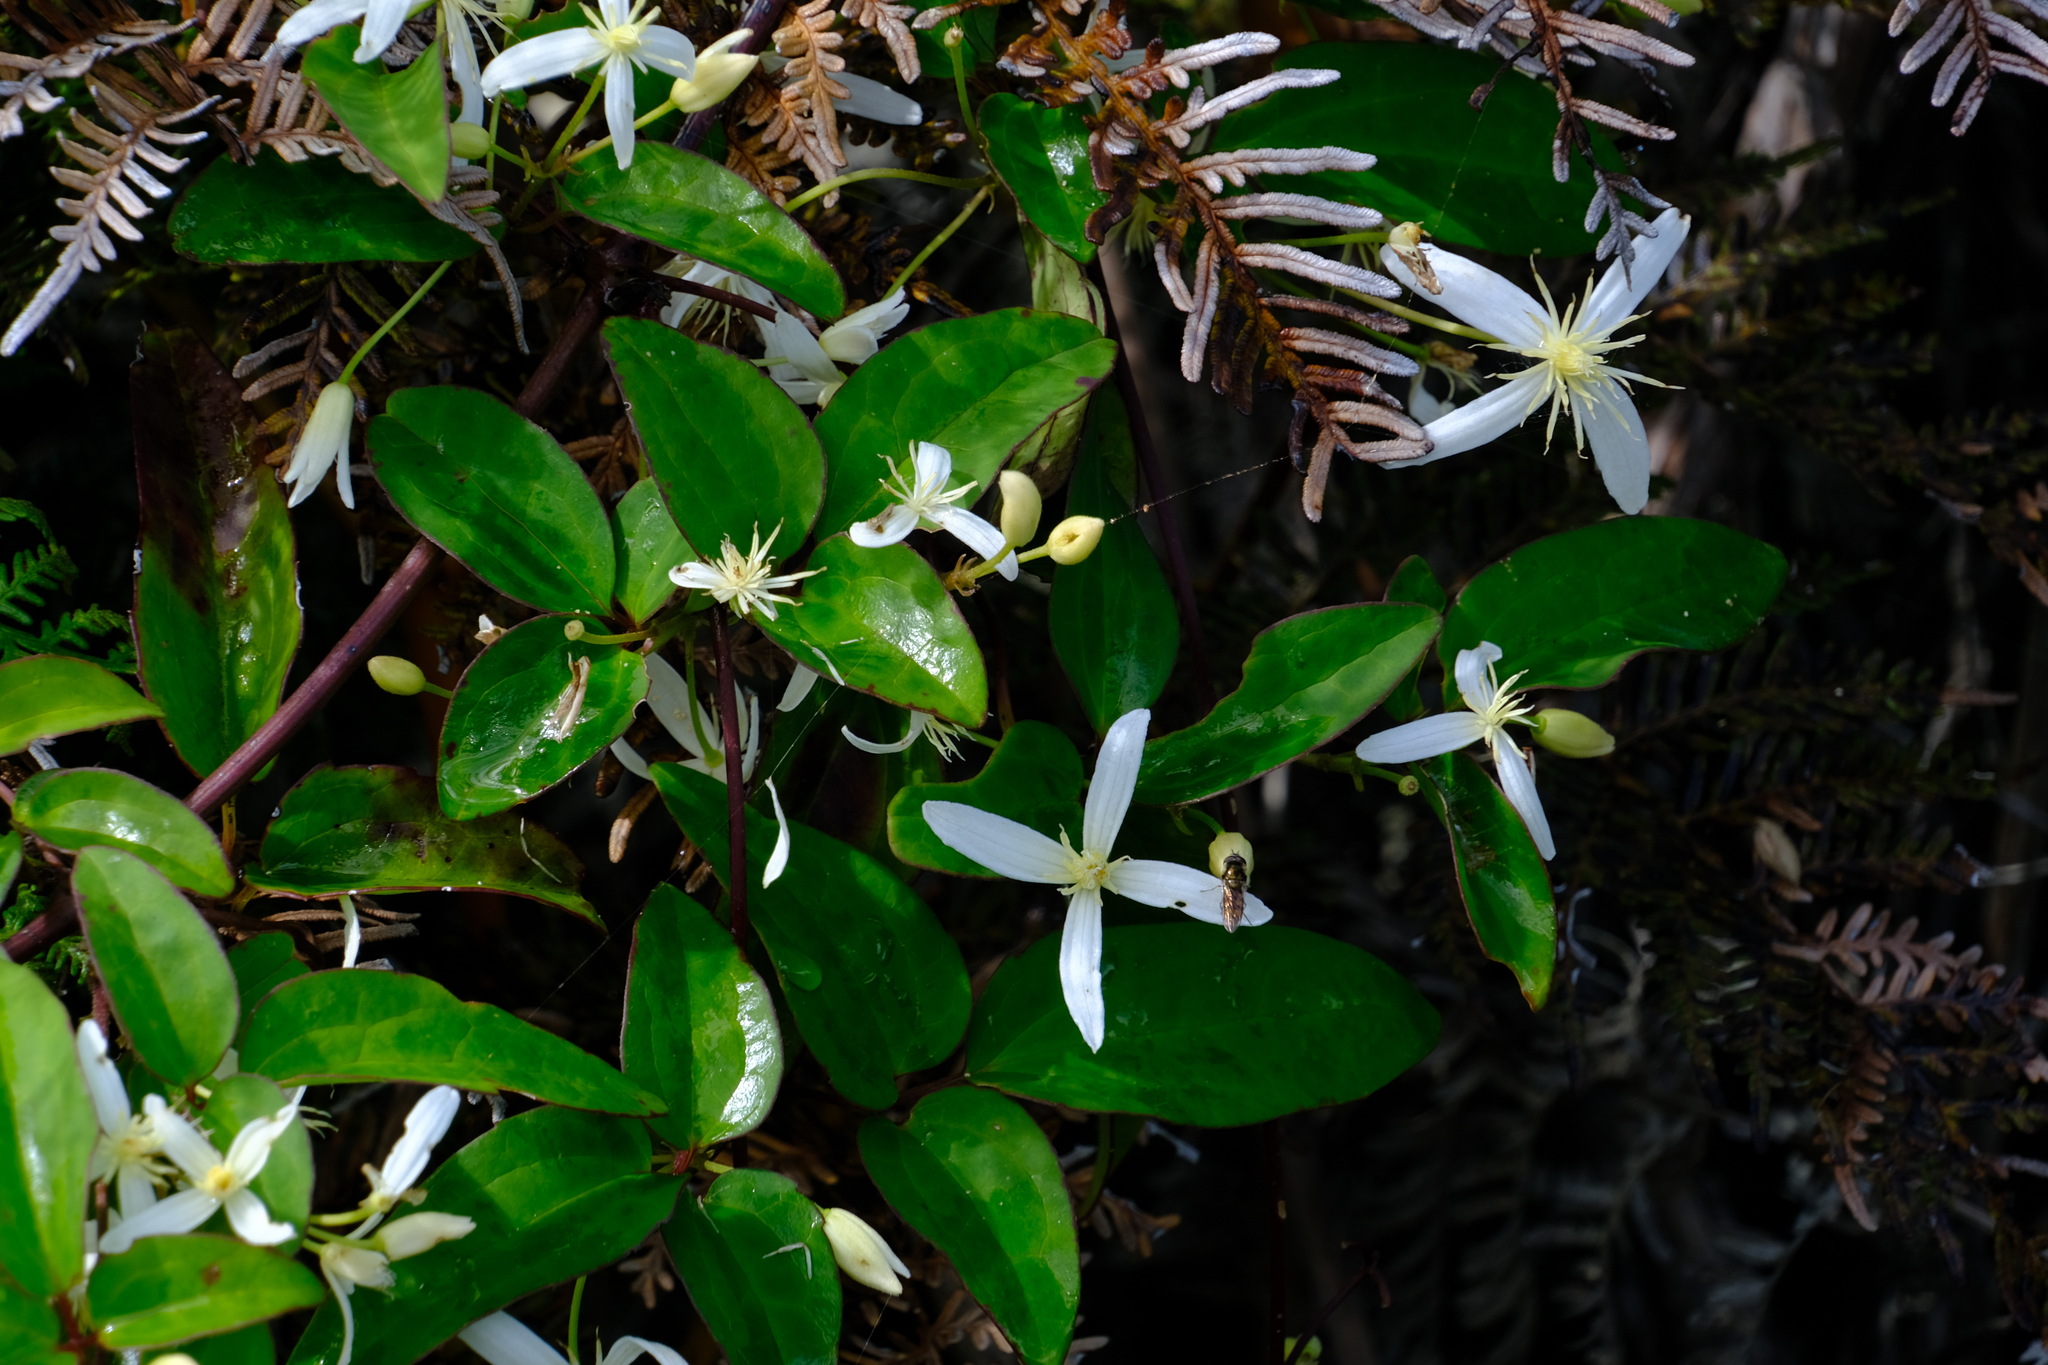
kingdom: Plantae
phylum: Tracheophyta
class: Magnoliopsida
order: Ranunculales
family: Ranunculaceae
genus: Clematis
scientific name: Clematis aristata
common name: Mountain clematis
